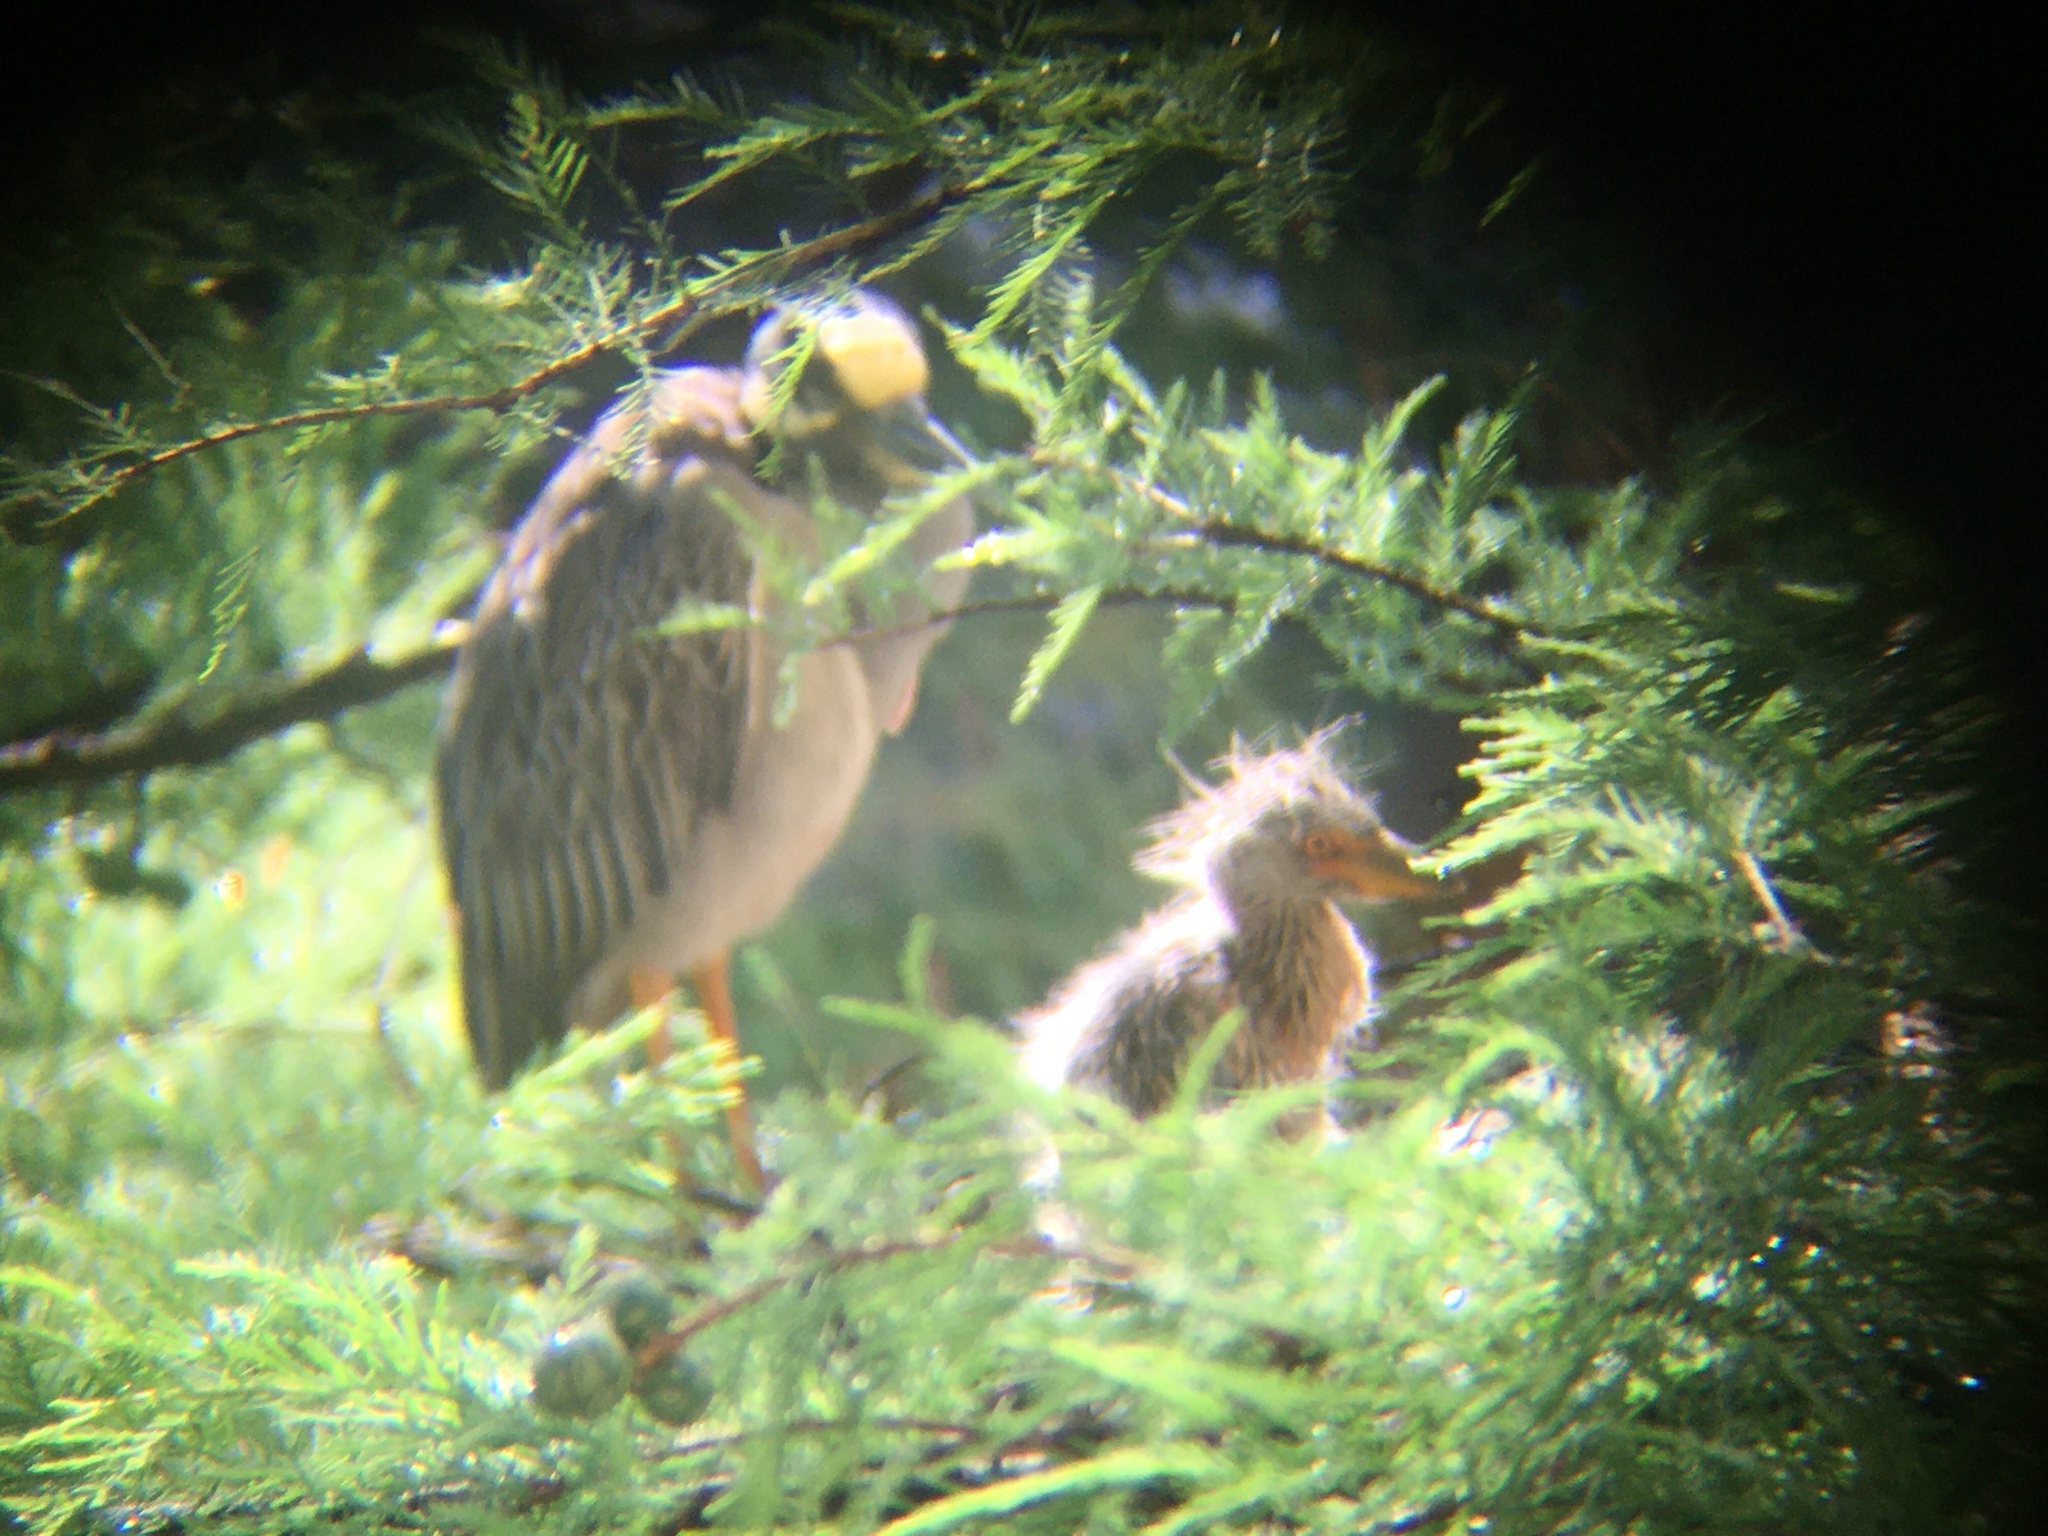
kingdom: Animalia
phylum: Chordata
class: Aves
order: Pelecaniformes
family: Ardeidae
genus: Nyctanassa
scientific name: Nyctanassa violacea
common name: Yellow-crowned night heron
